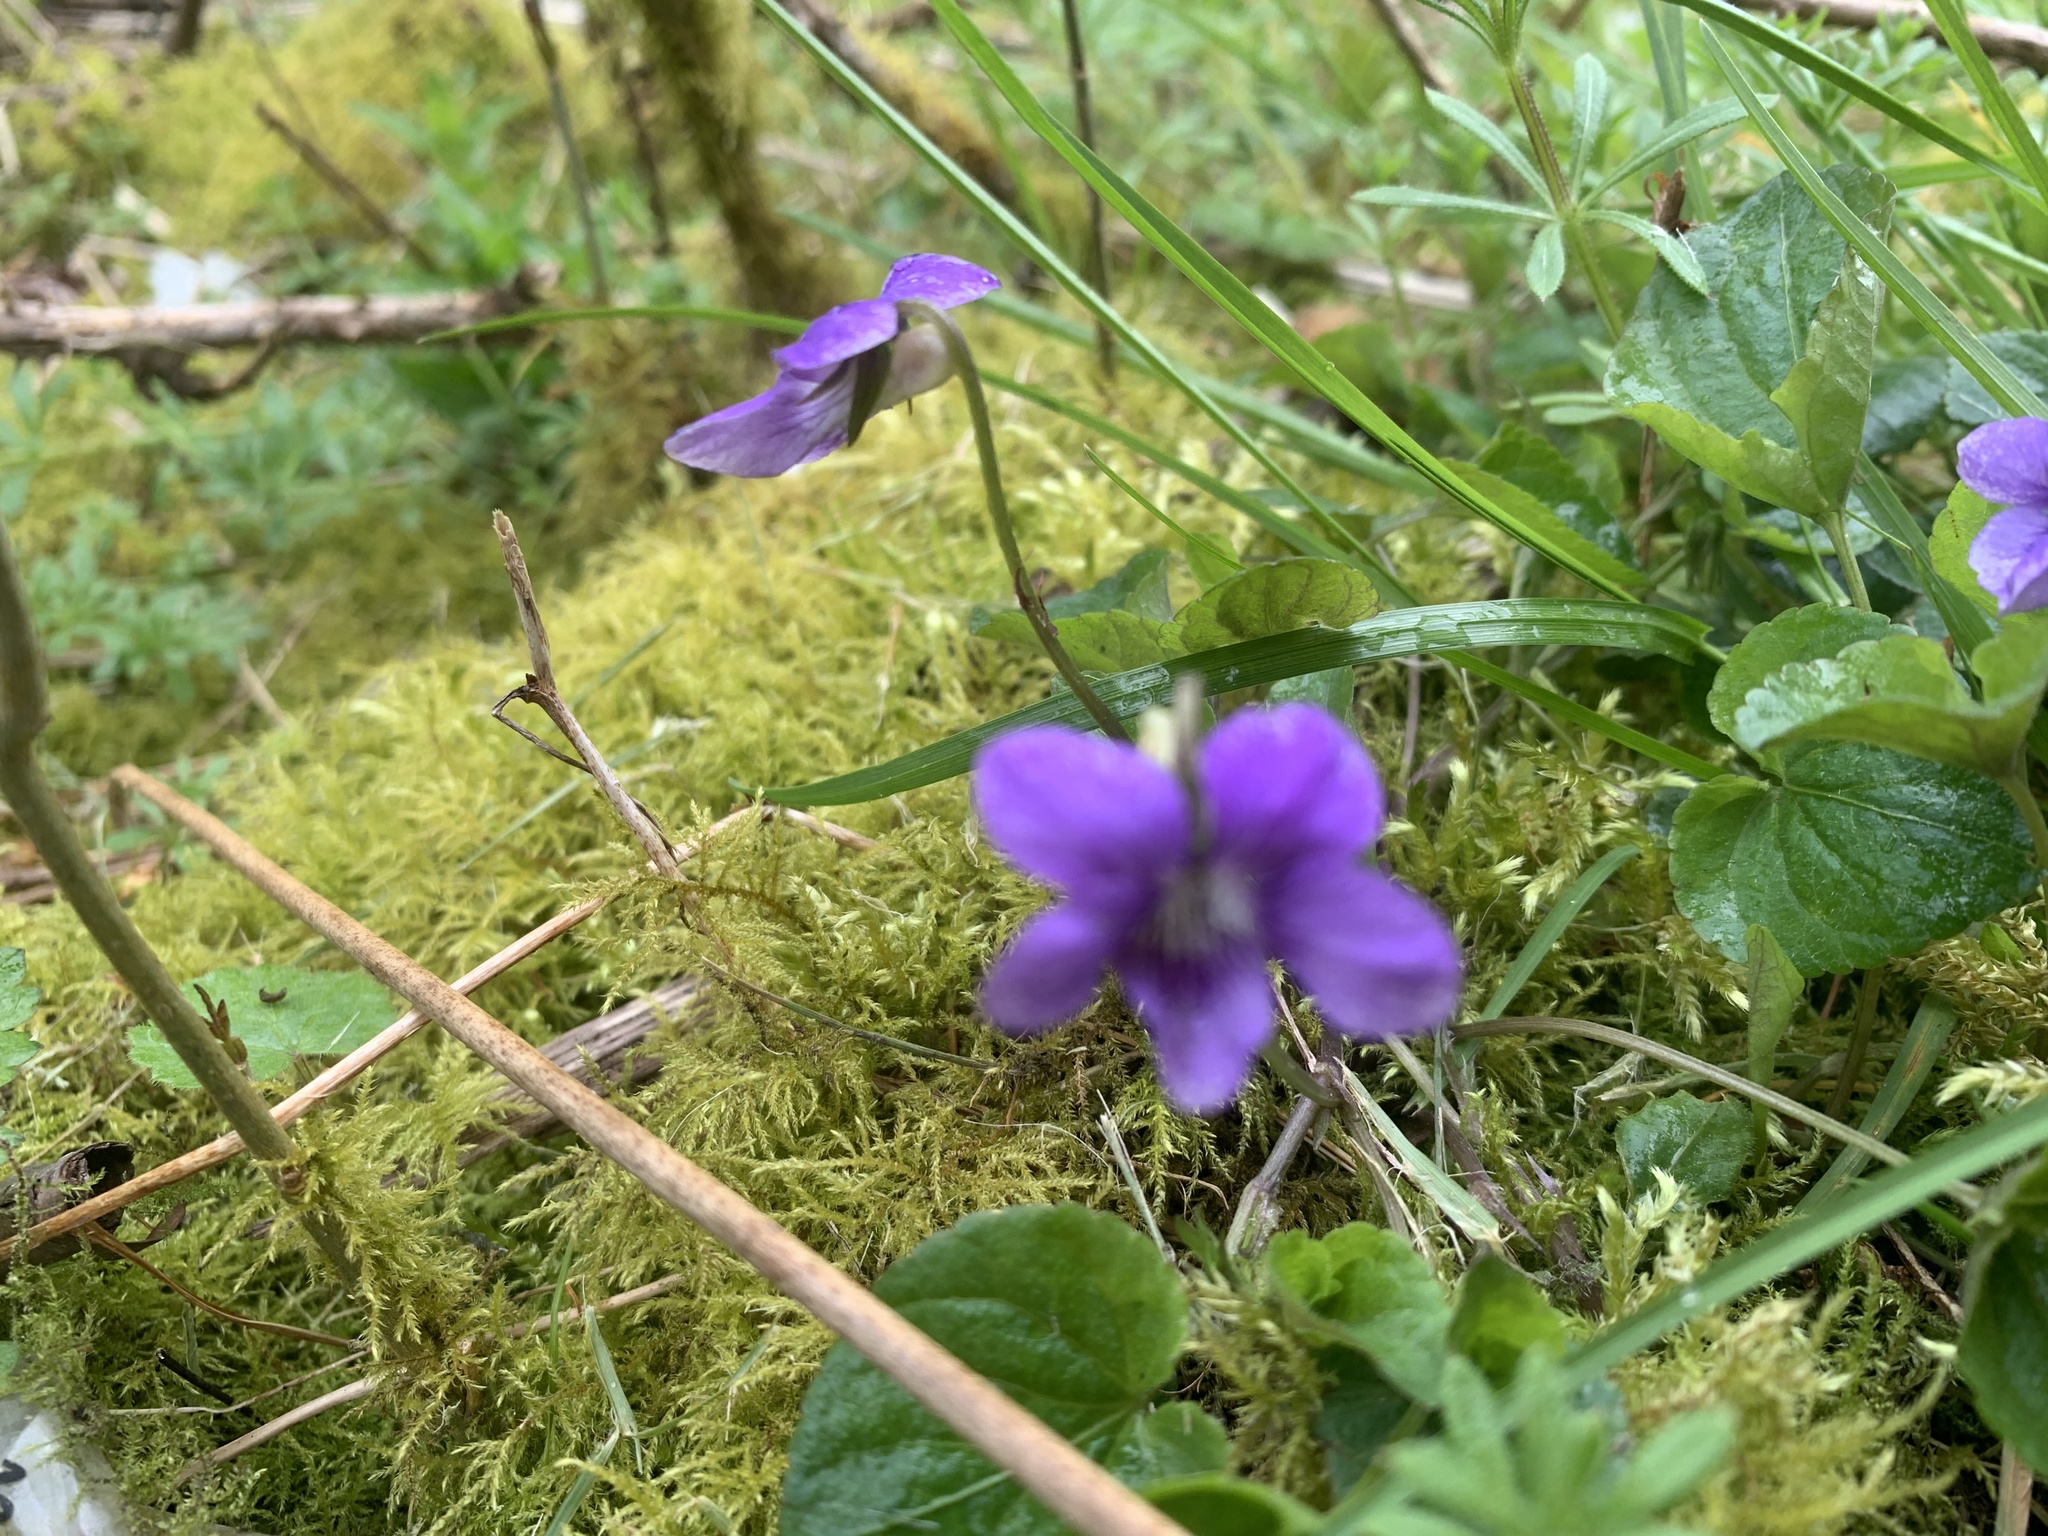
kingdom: Plantae
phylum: Tracheophyta
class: Magnoliopsida
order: Malpighiales
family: Violaceae
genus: Viola
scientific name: Viola riviniana
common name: Common dog-violet
